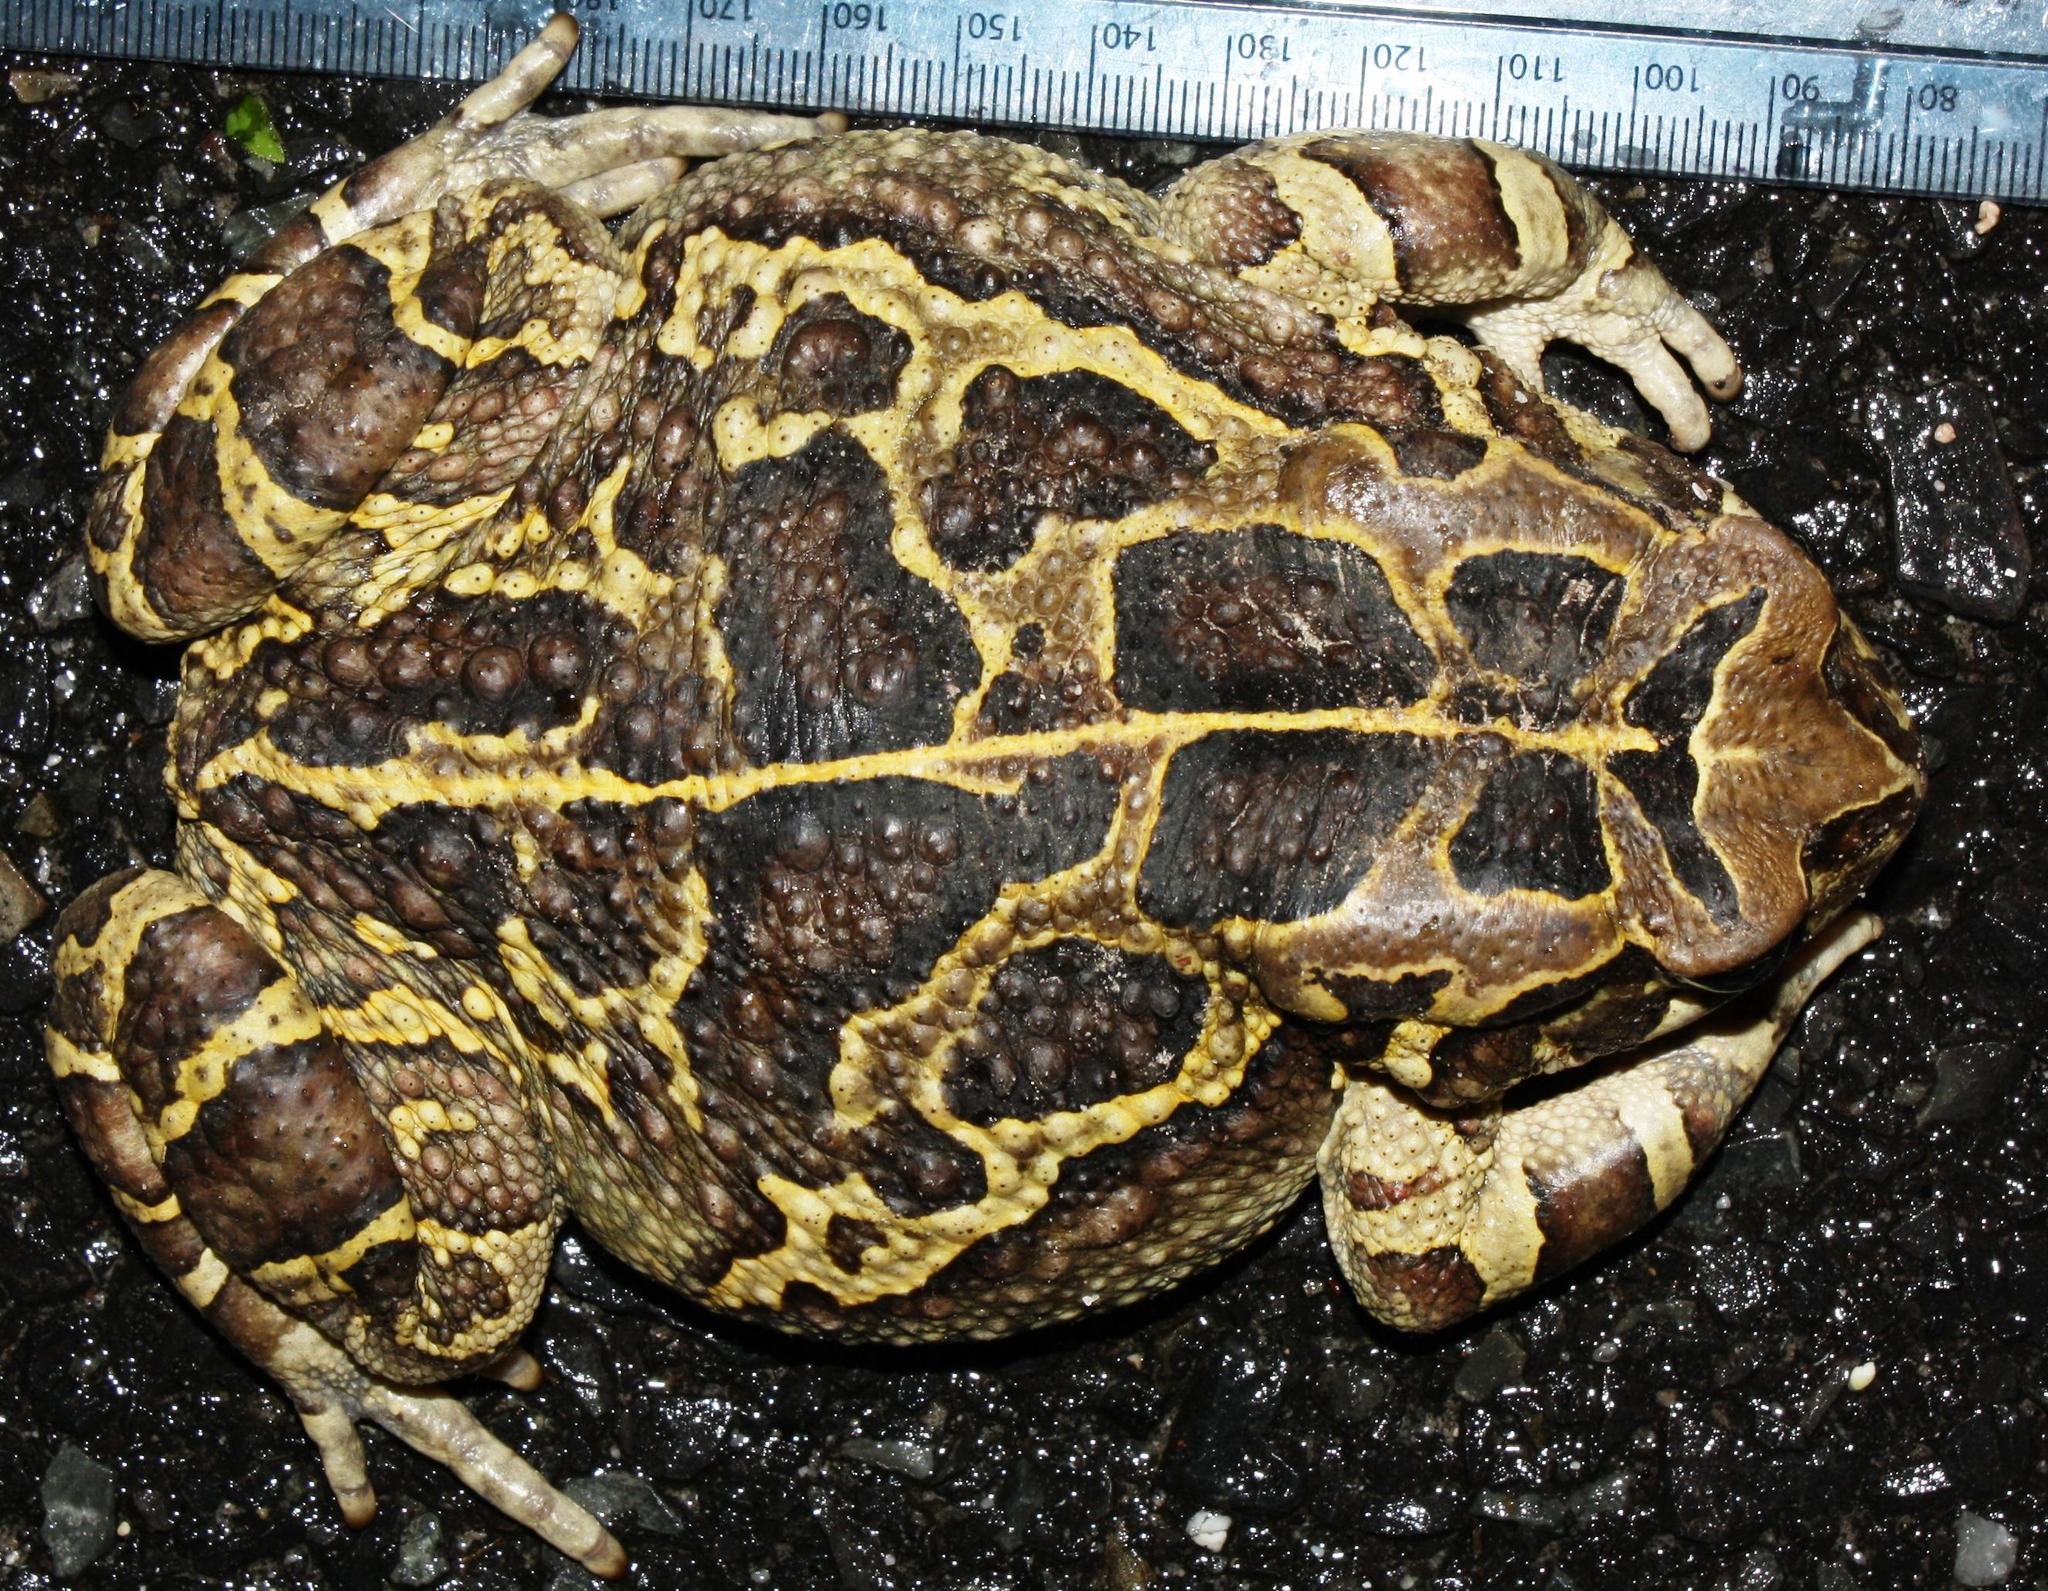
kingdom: Animalia
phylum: Chordata
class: Amphibia
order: Anura
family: Bufonidae
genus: Sclerophrys
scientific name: Sclerophrys pantherina
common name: Panther toad
